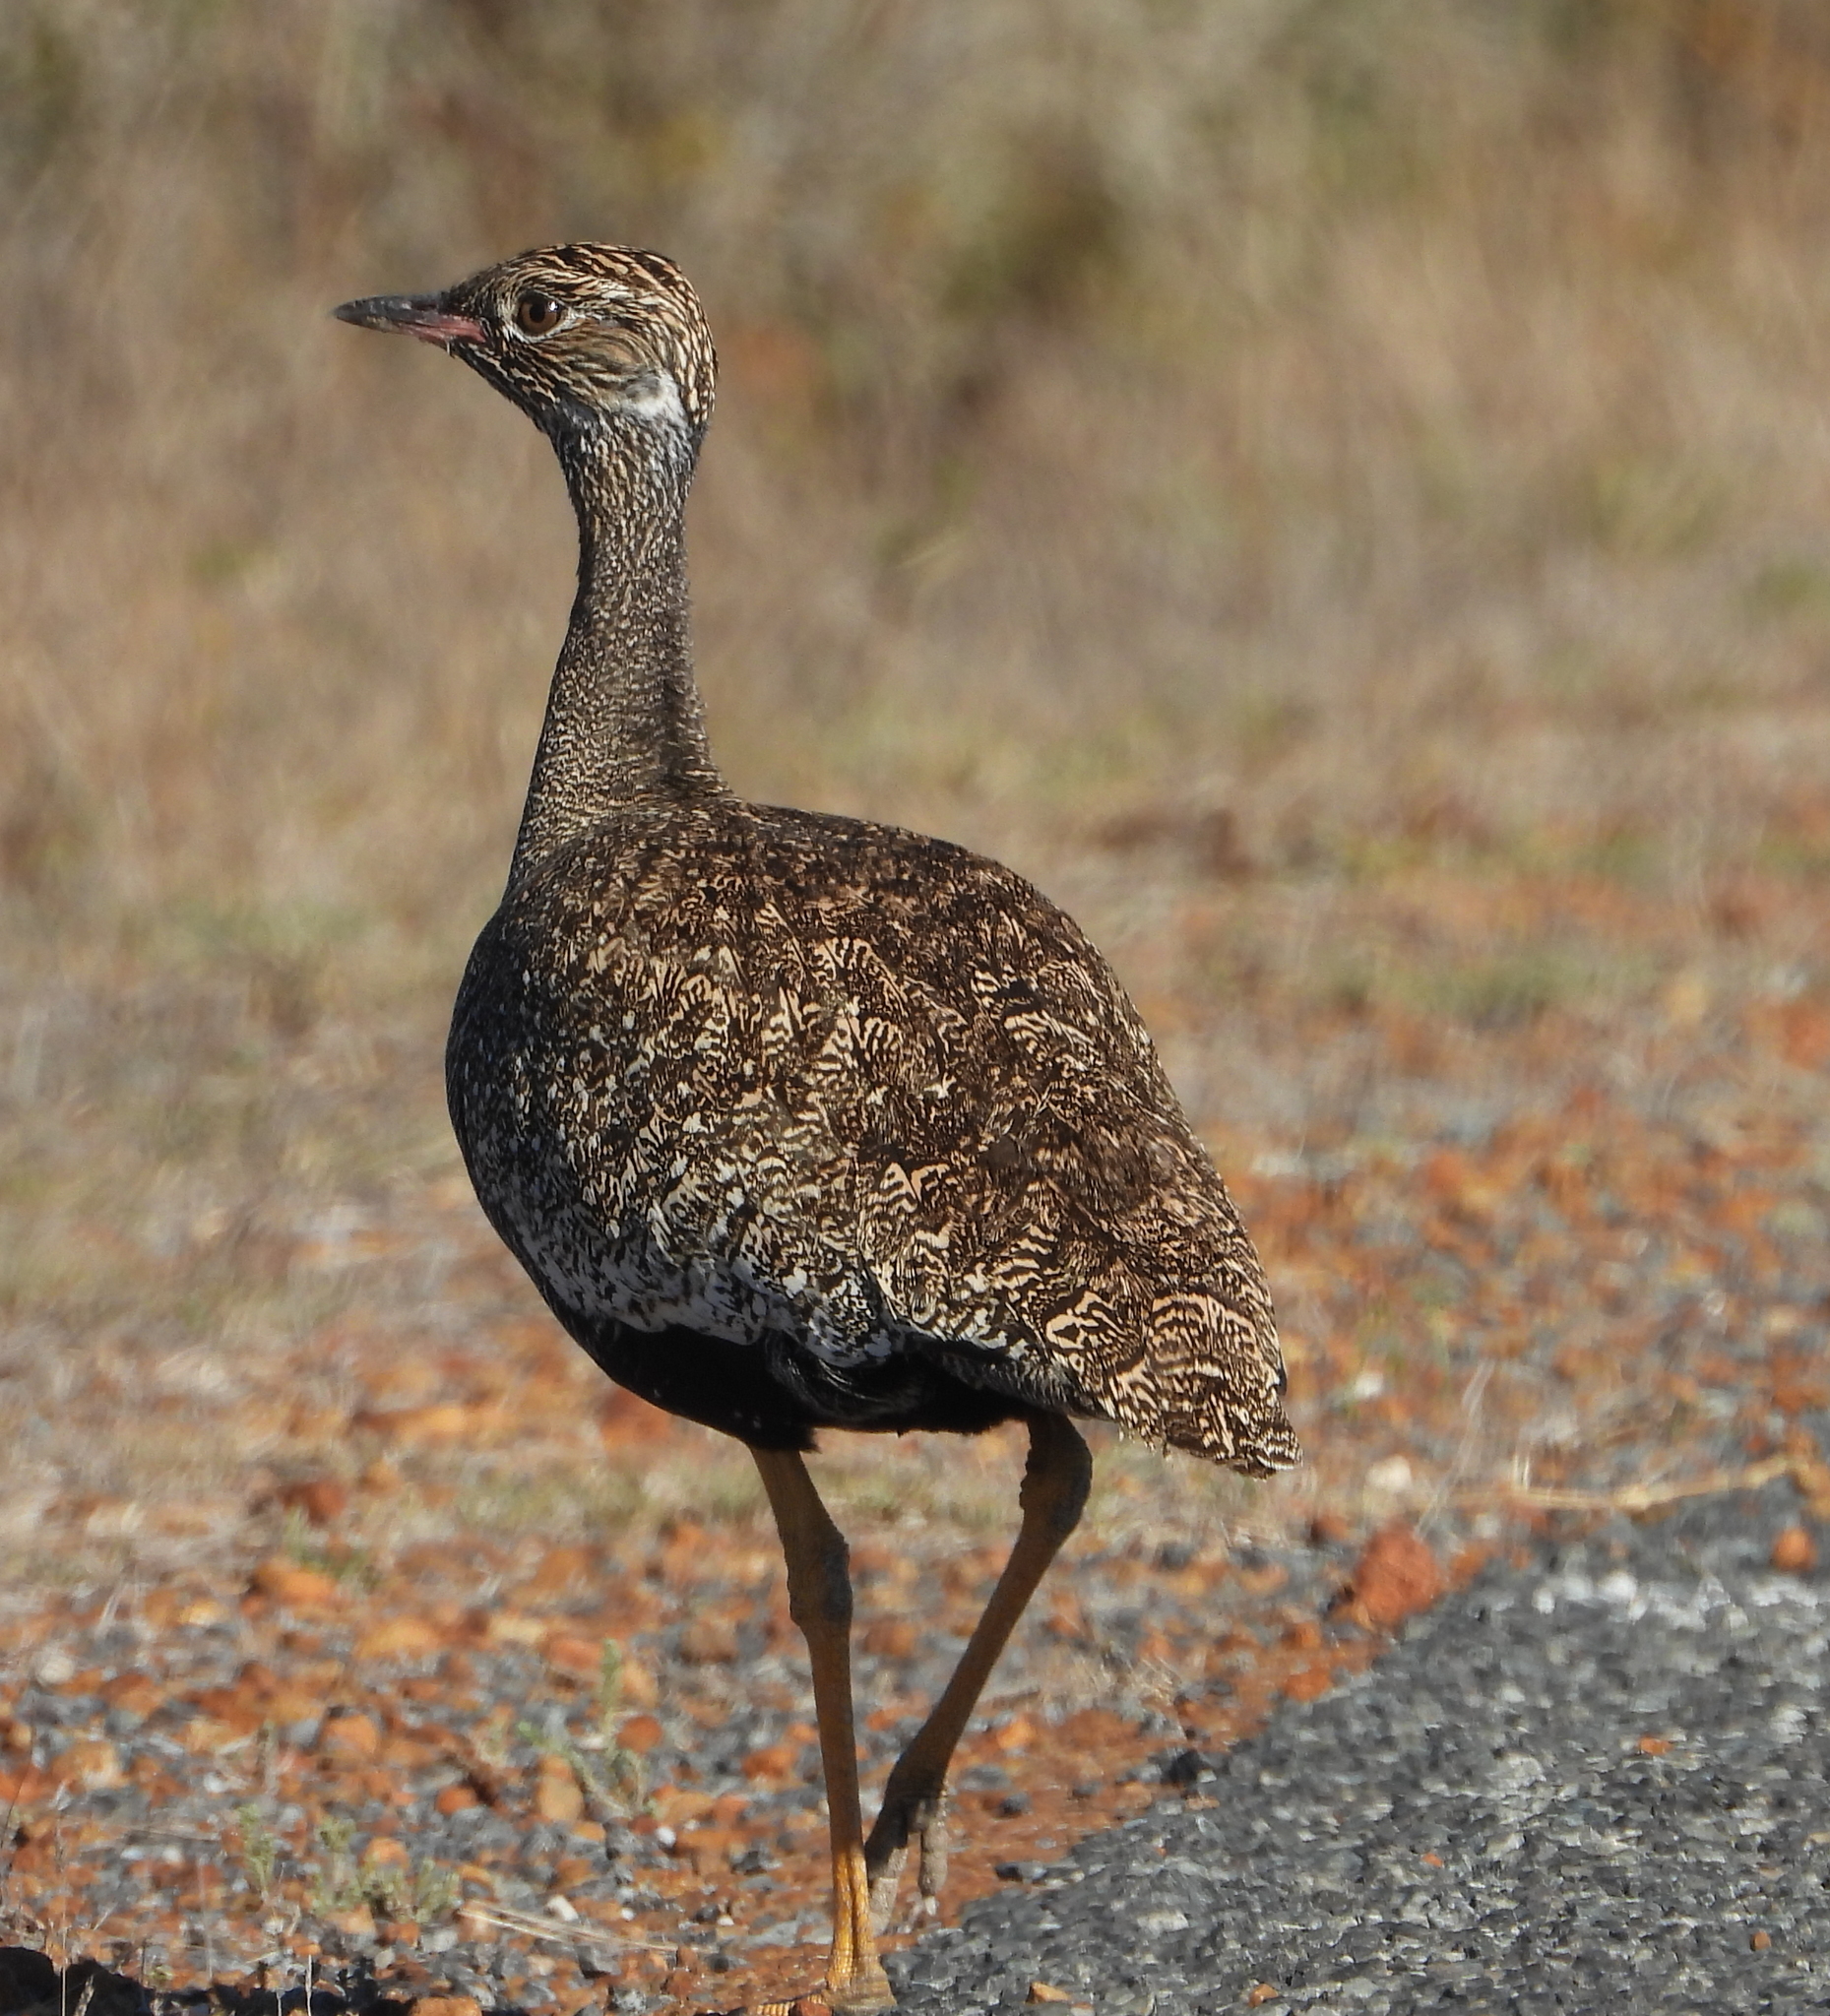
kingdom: Animalia
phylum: Chordata
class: Aves
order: Otidiformes
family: Otididae
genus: Afrotis
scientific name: Afrotis afra
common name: Southern black korhaan
